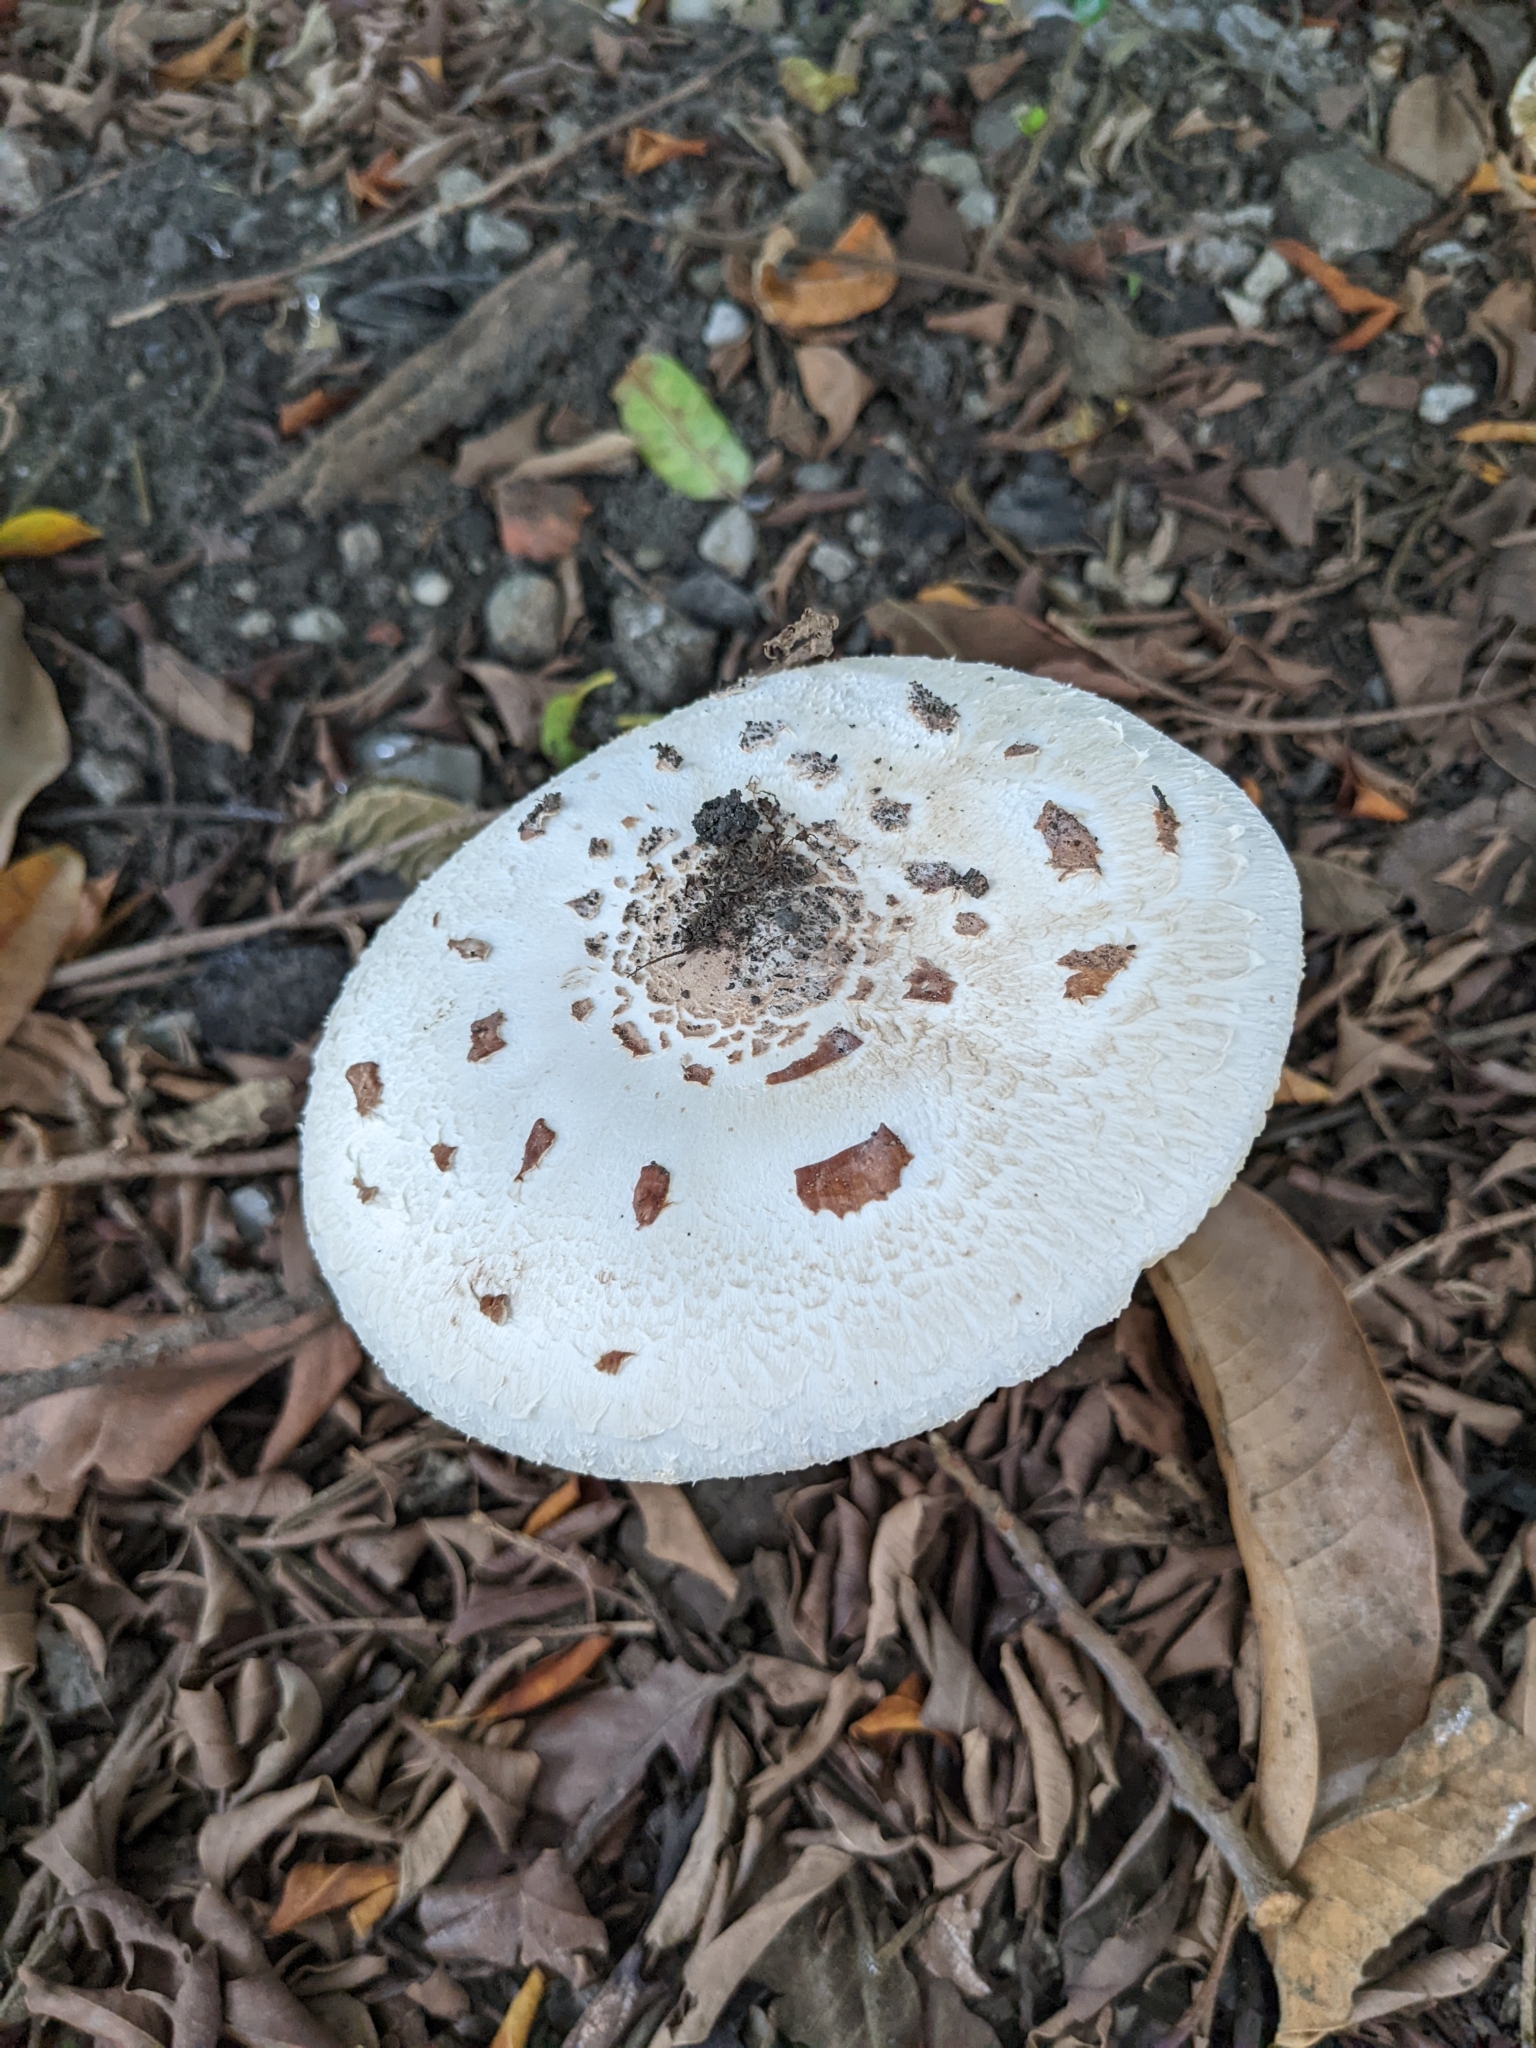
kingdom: Fungi
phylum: Basidiomycota
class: Agaricomycetes
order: Agaricales
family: Agaricaceae
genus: Chlorophyllum
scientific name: Chlorophyllum molybdites
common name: False parasol
